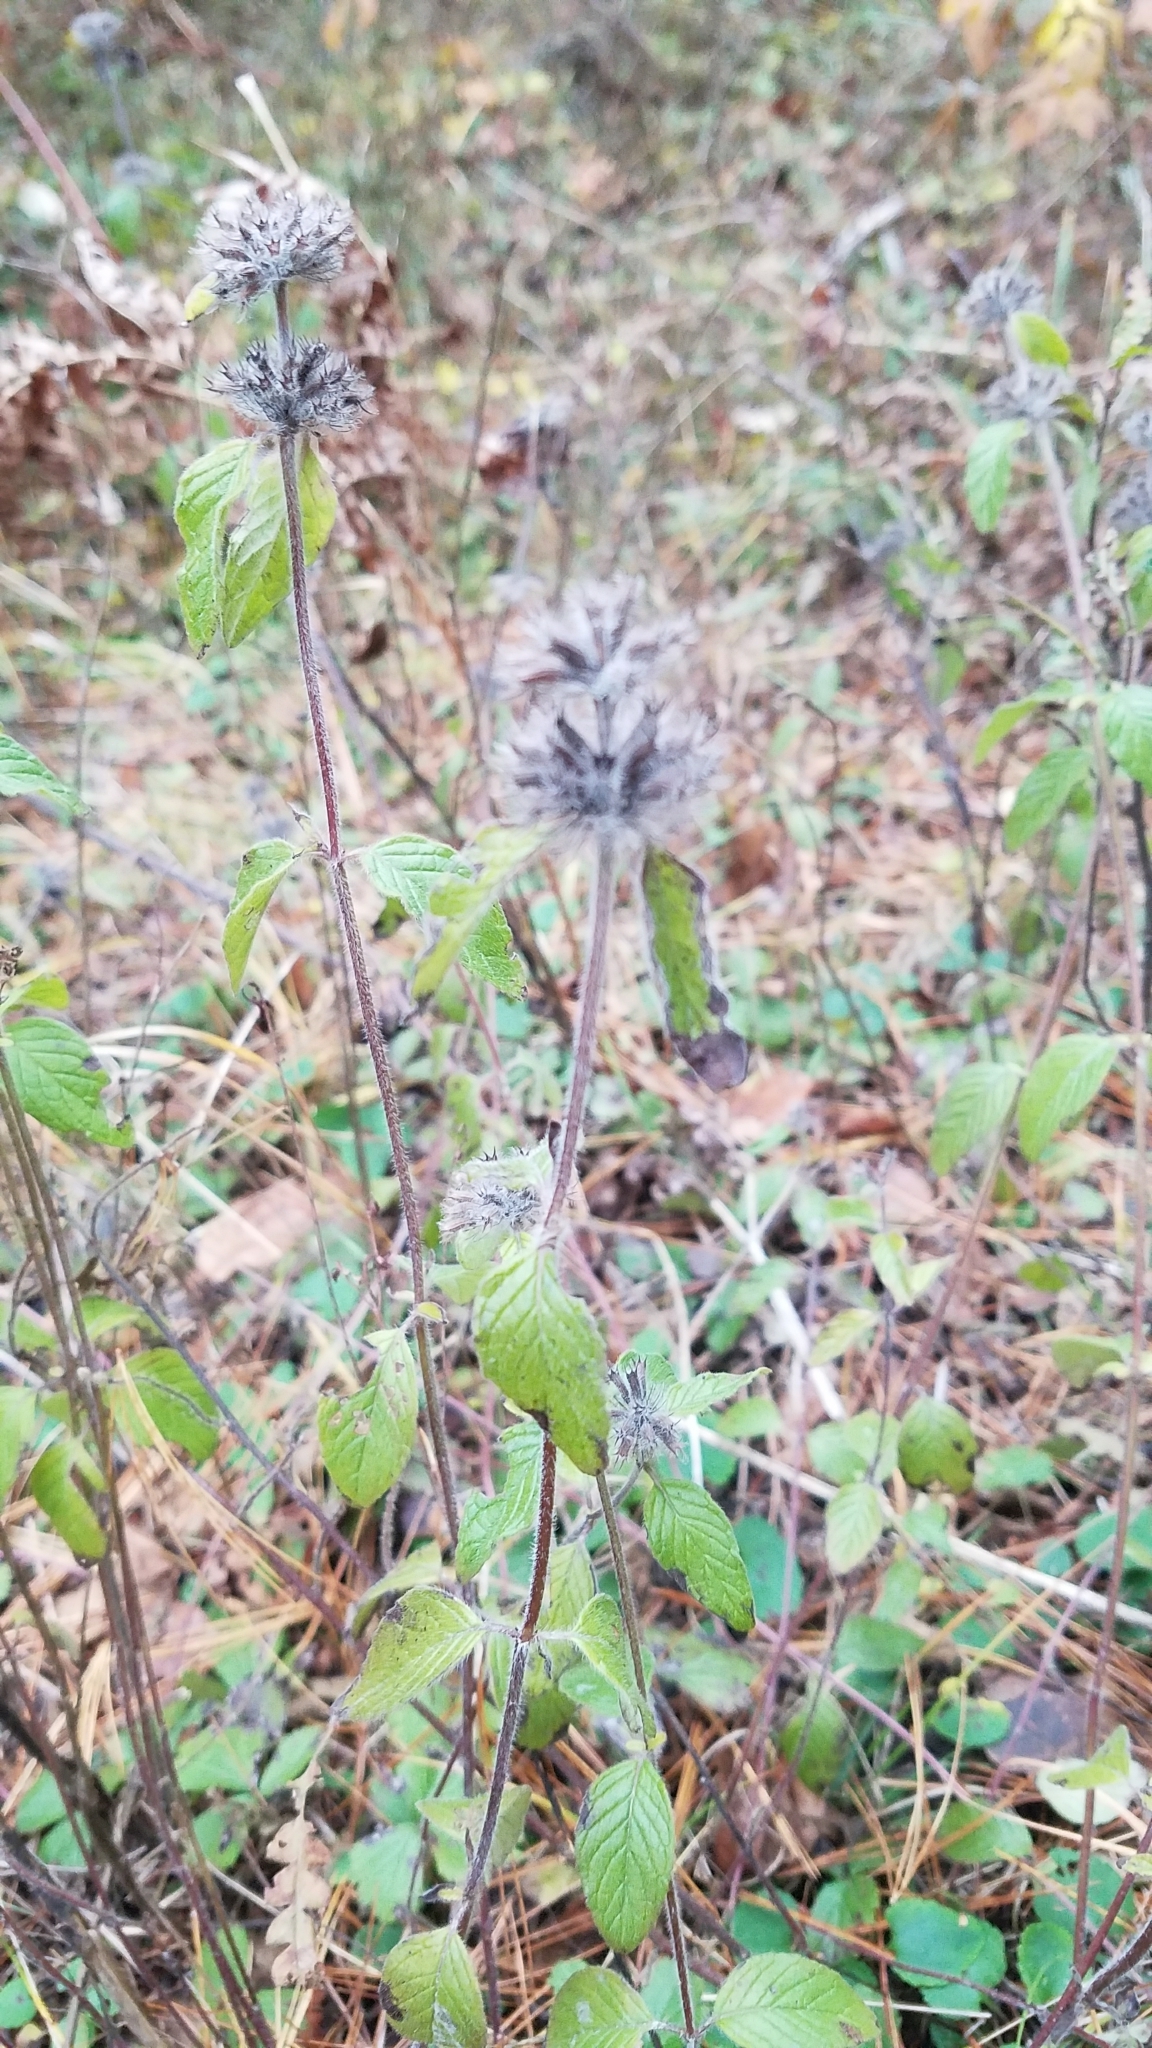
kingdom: Plantae
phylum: Tracheophyta
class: Magnoliopsida
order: Lamiales
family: Lamiaceae
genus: Clinopodium
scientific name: Clinopodium vulgare
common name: Wild basil
